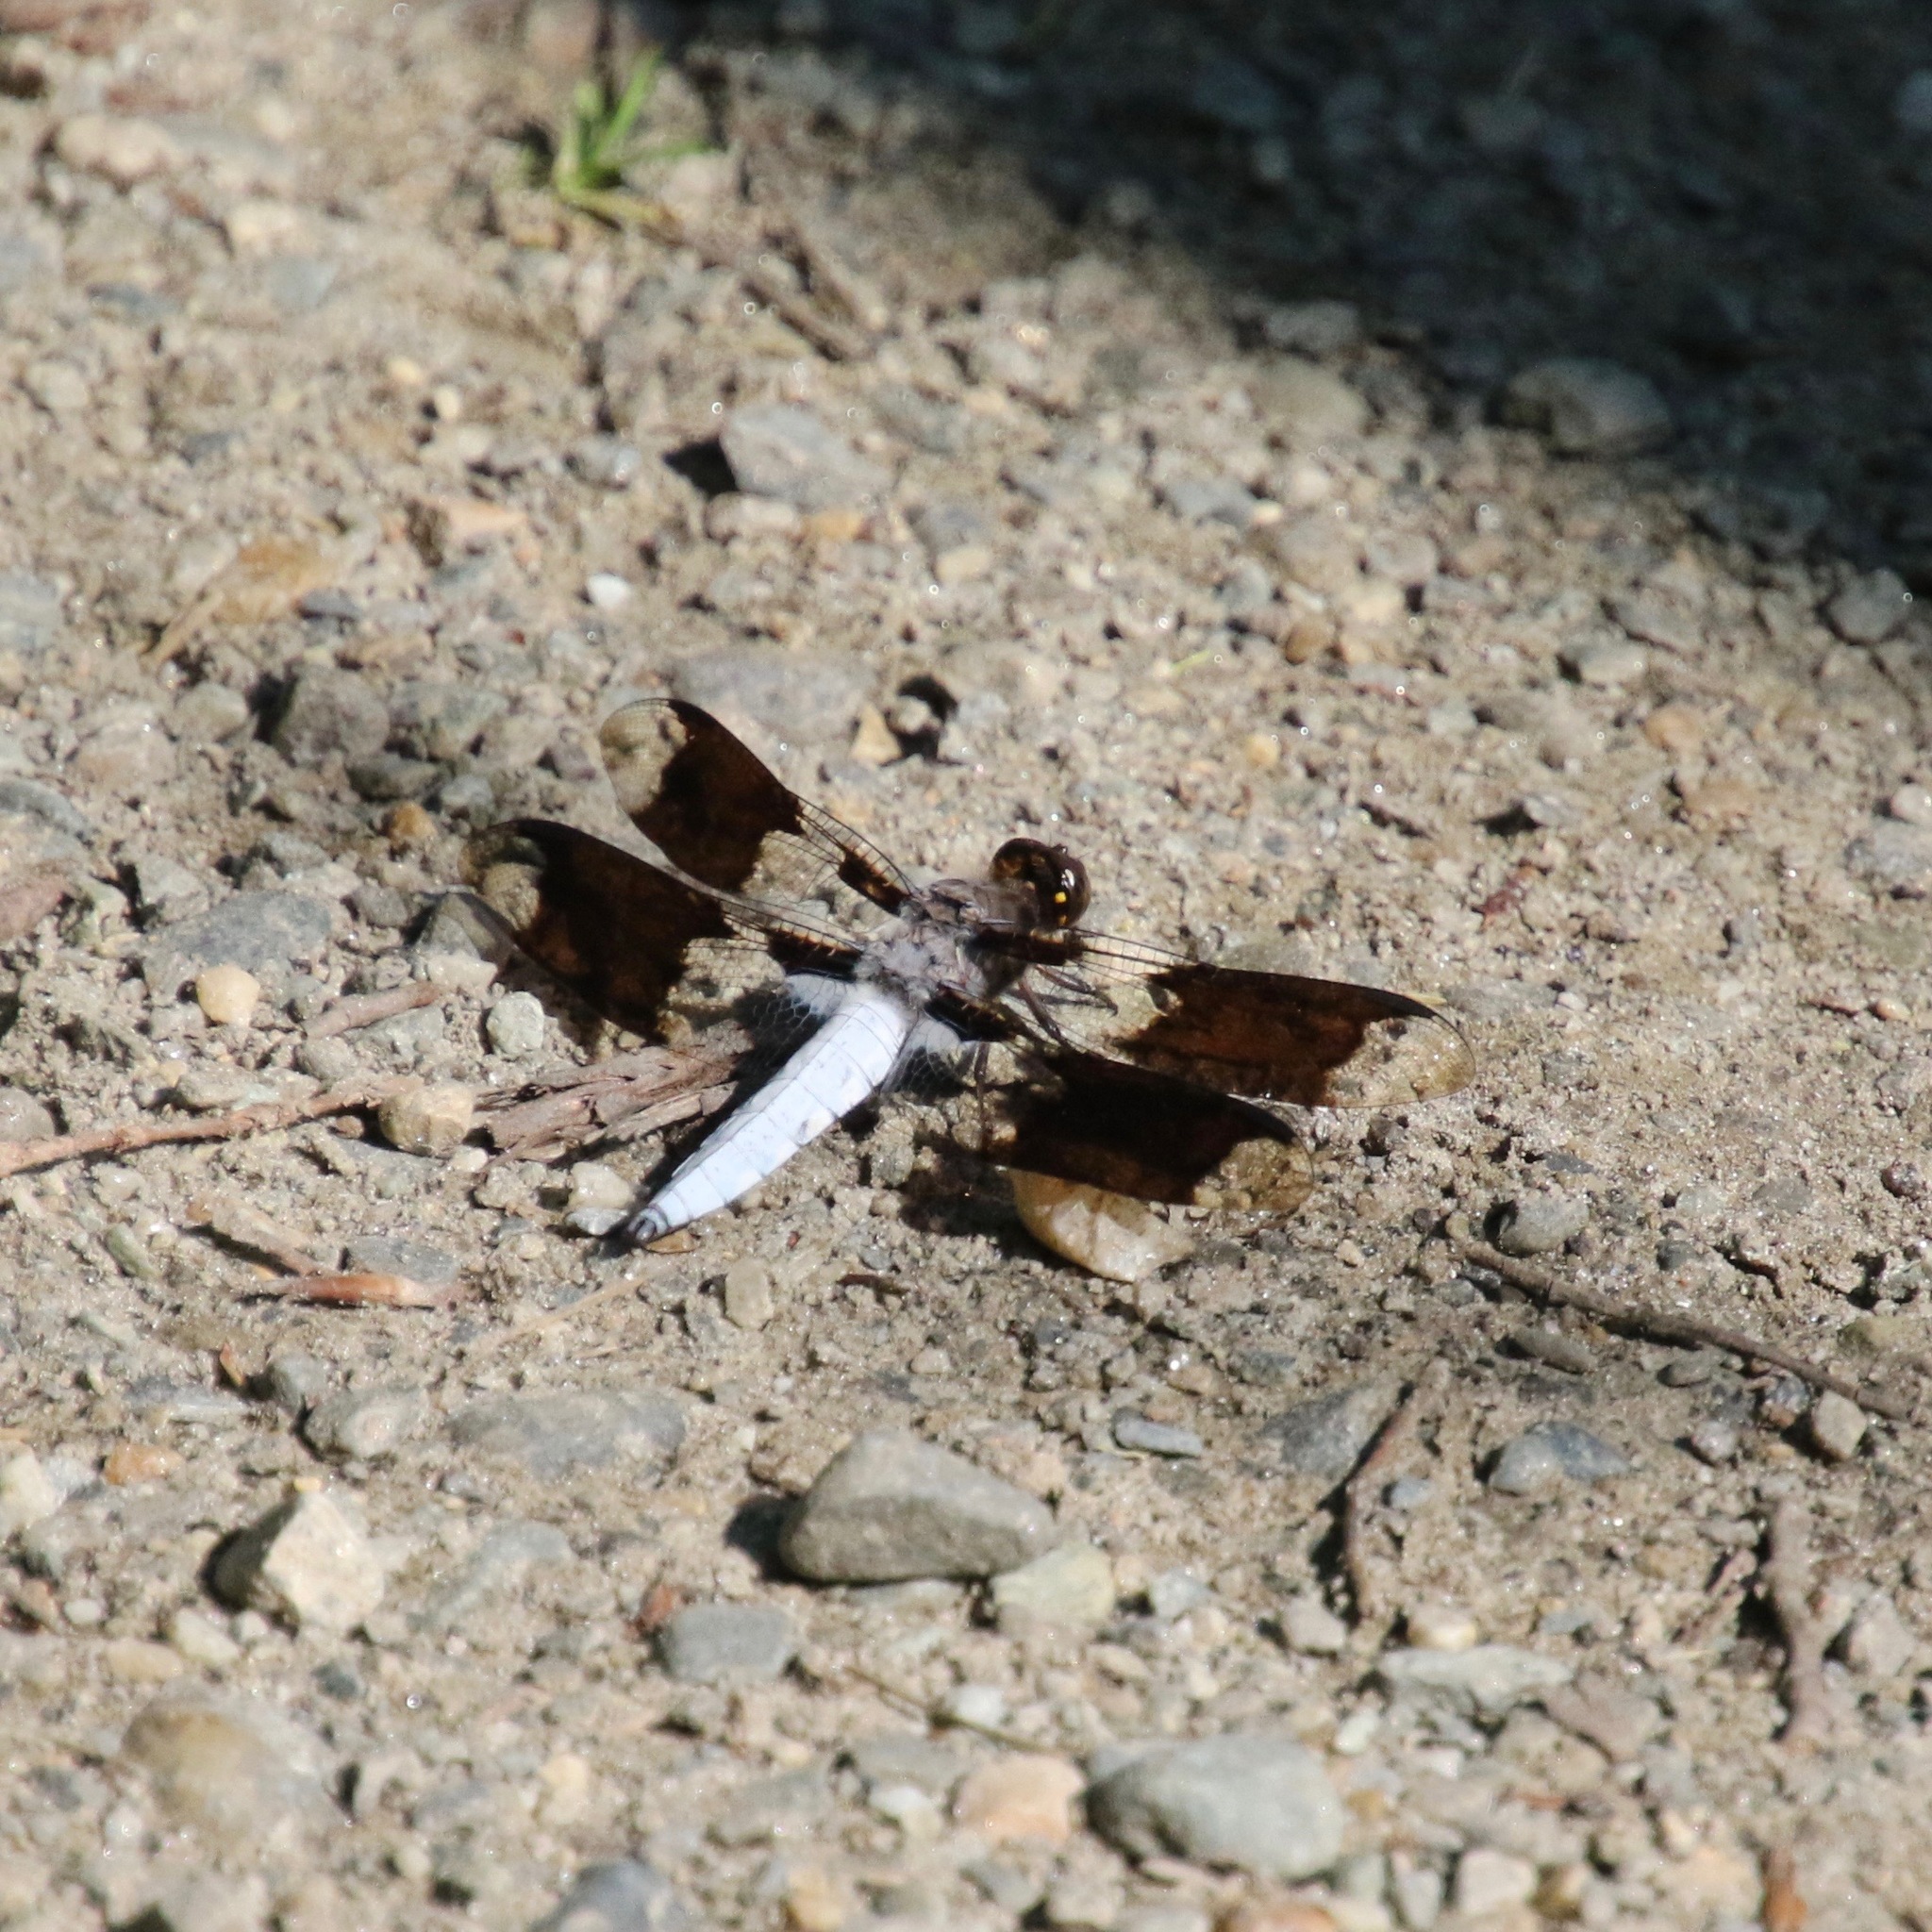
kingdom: Animalia
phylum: Arthropoda
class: Insecta
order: Odonata
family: Libellulidae
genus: Plathemis
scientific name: Plathemis lydia
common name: Common whitetail
